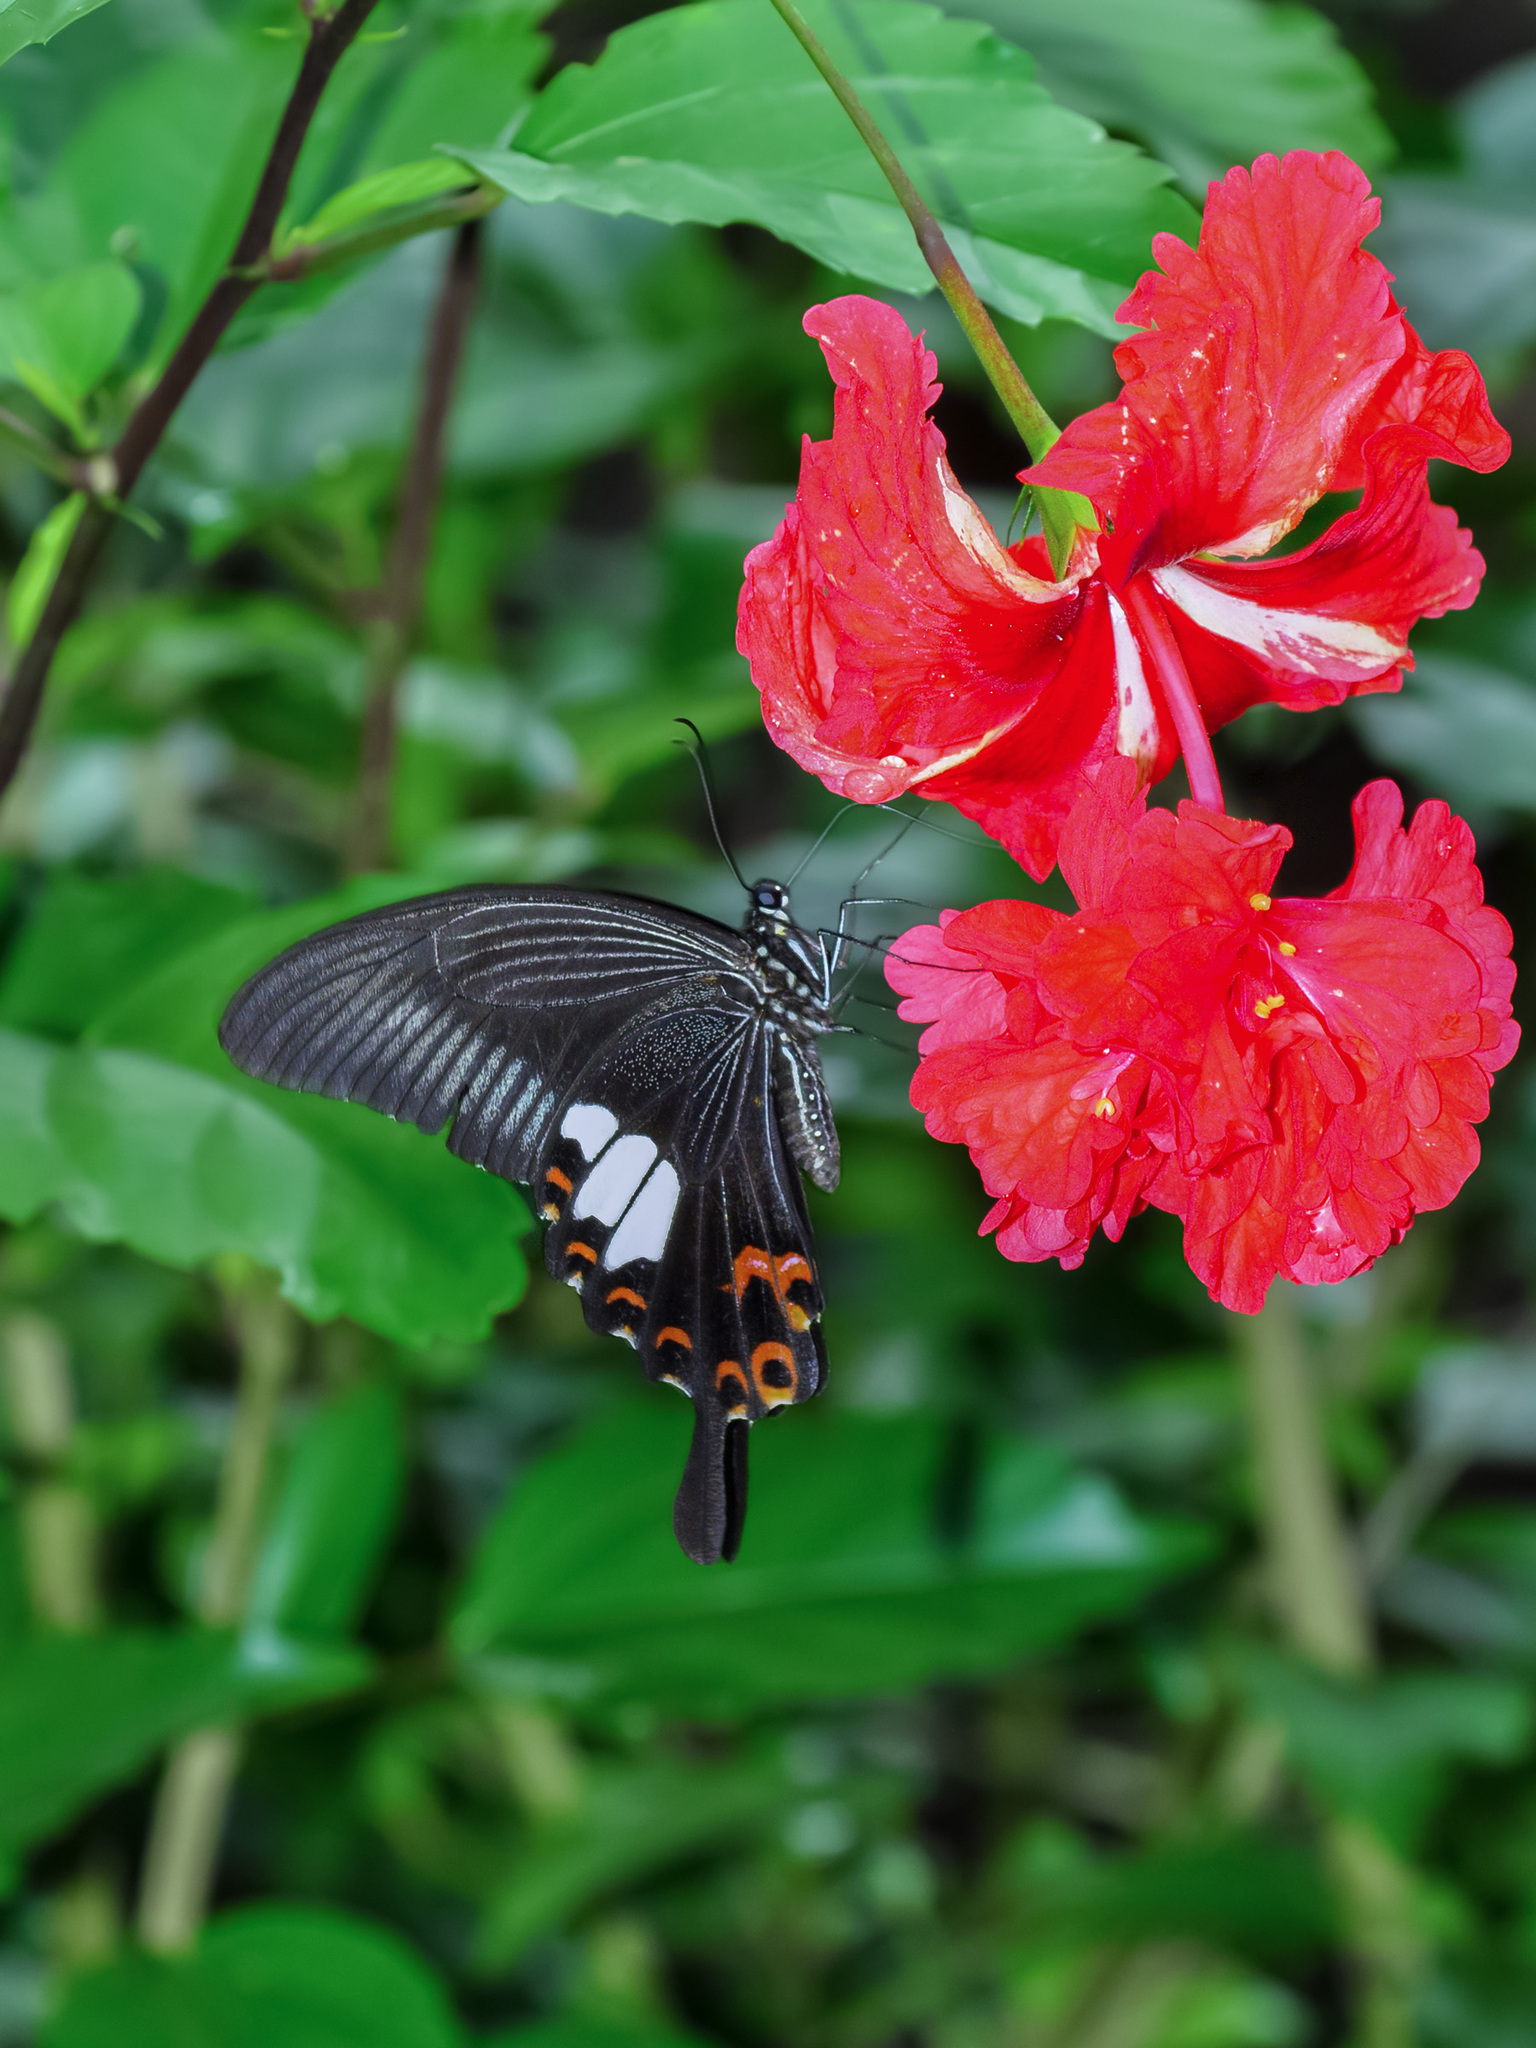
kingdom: Animalia
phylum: Arthropoda
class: Insecta
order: Lepidoptera
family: Papilionidae
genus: Papilio
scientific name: Papilio helenus
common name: Red helen
